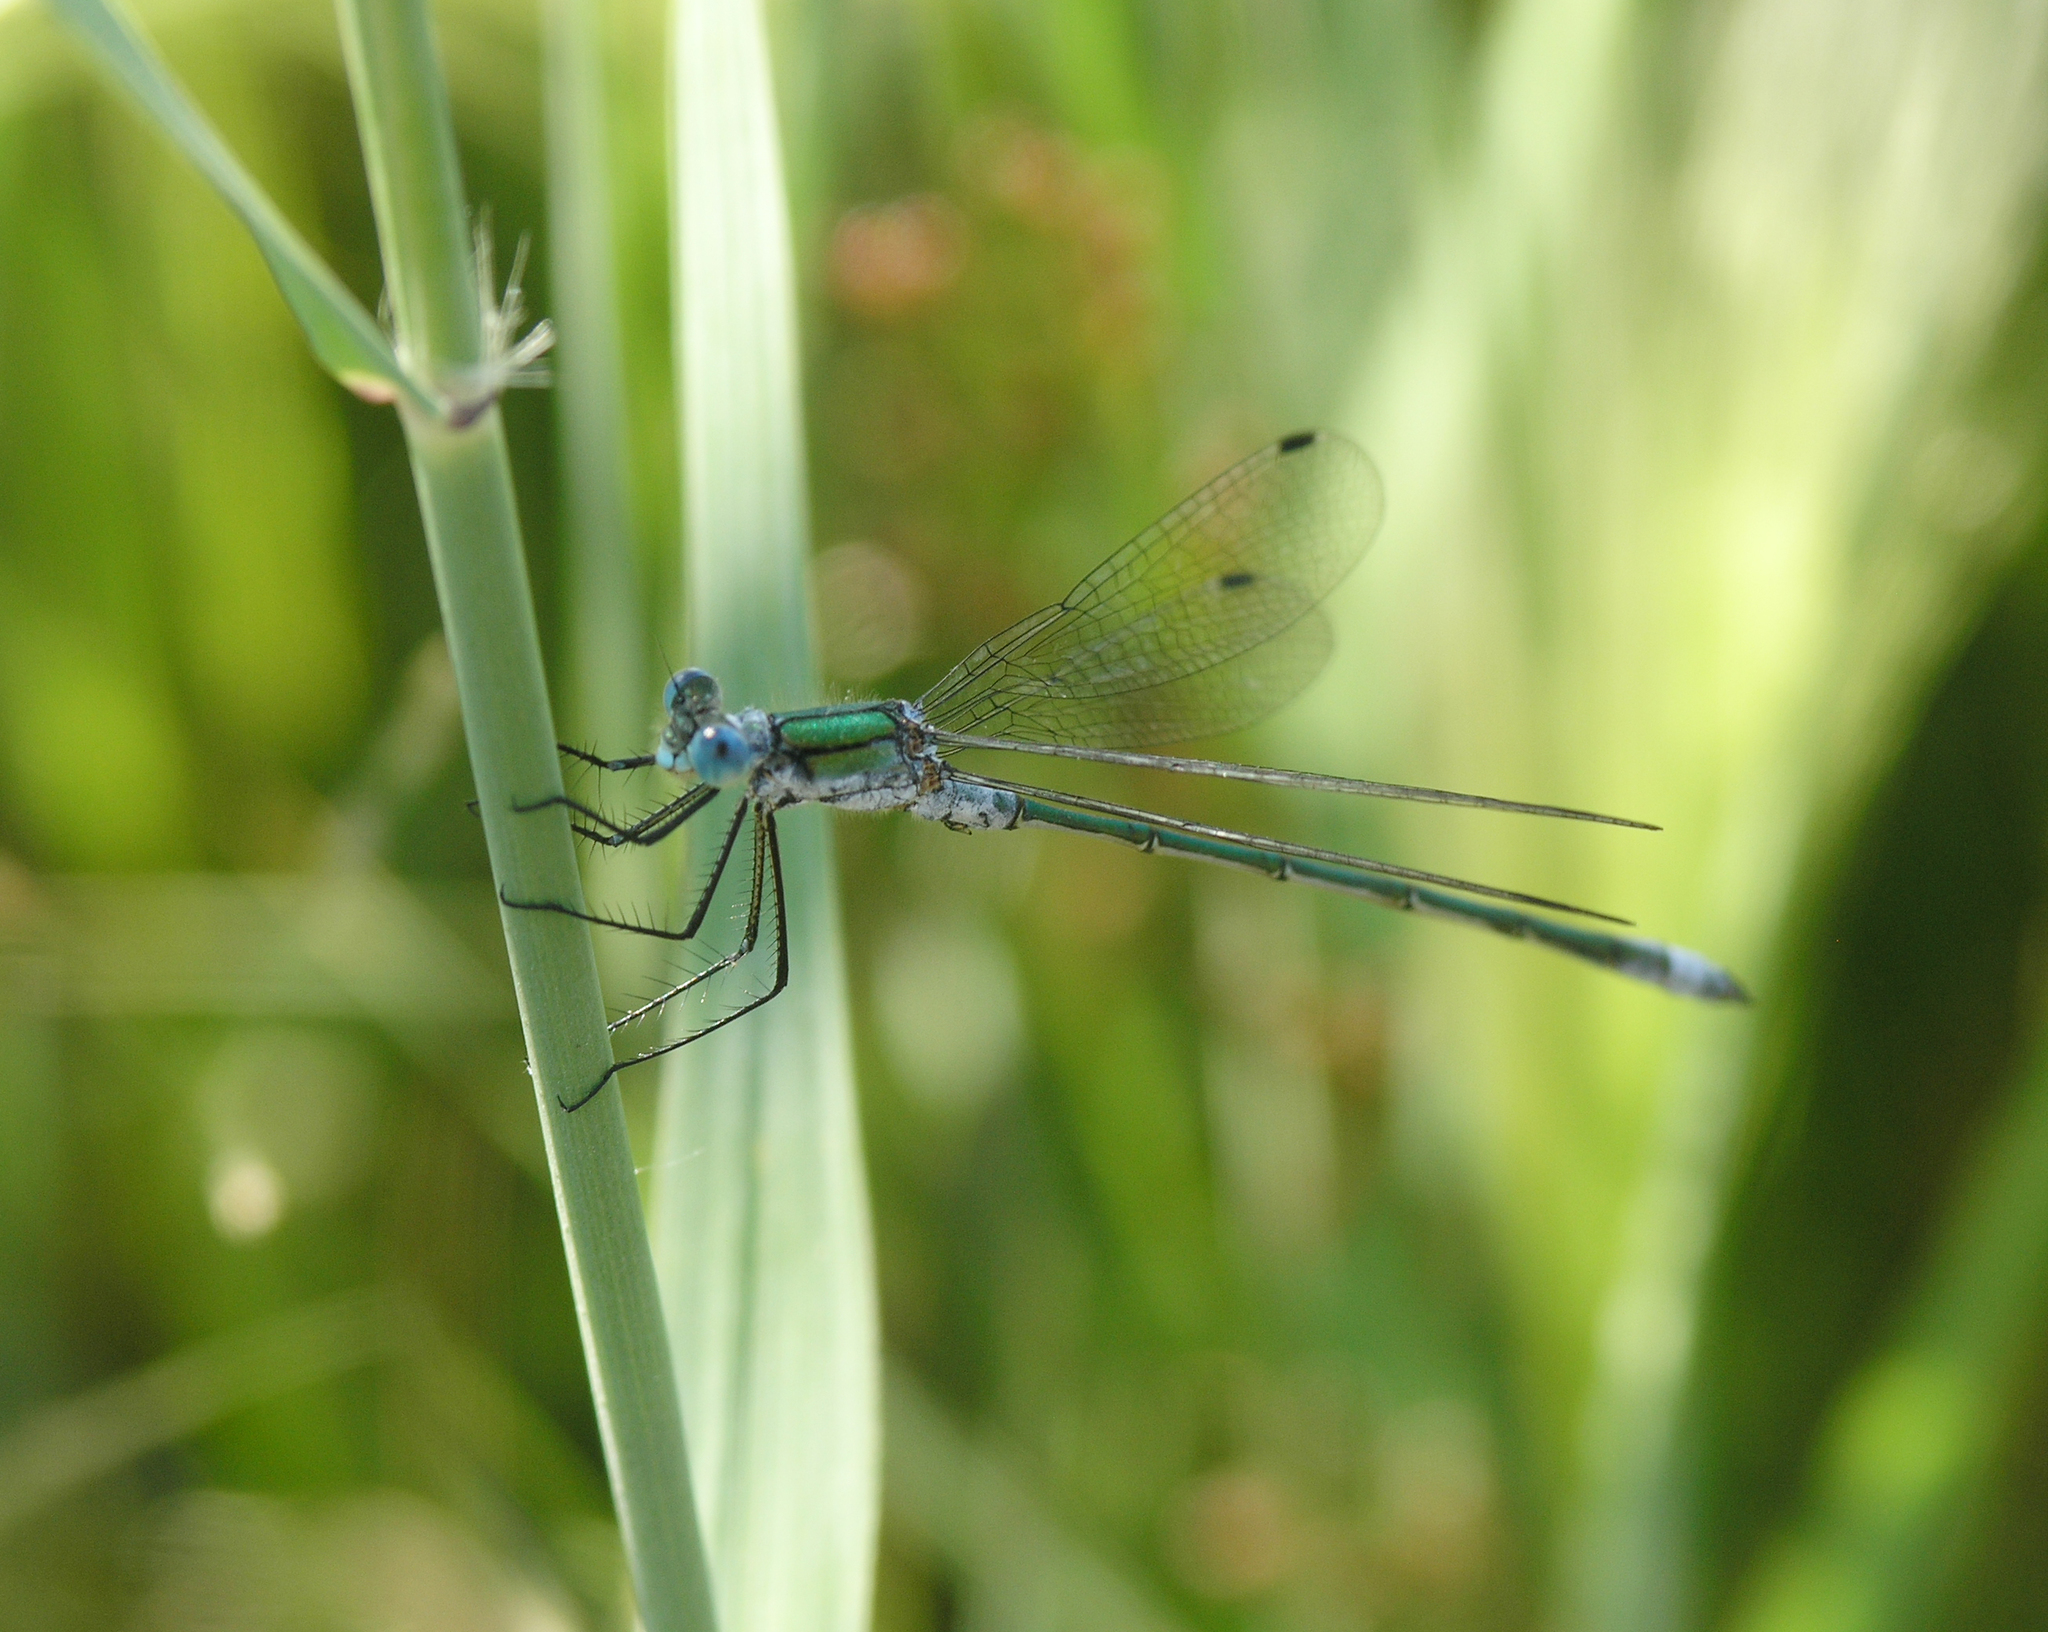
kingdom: Animalia
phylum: Arthropoda
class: Insecta
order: Odonata
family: Lestidae
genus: Lestes
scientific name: Lestes sponsa
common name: Common spreadwing
